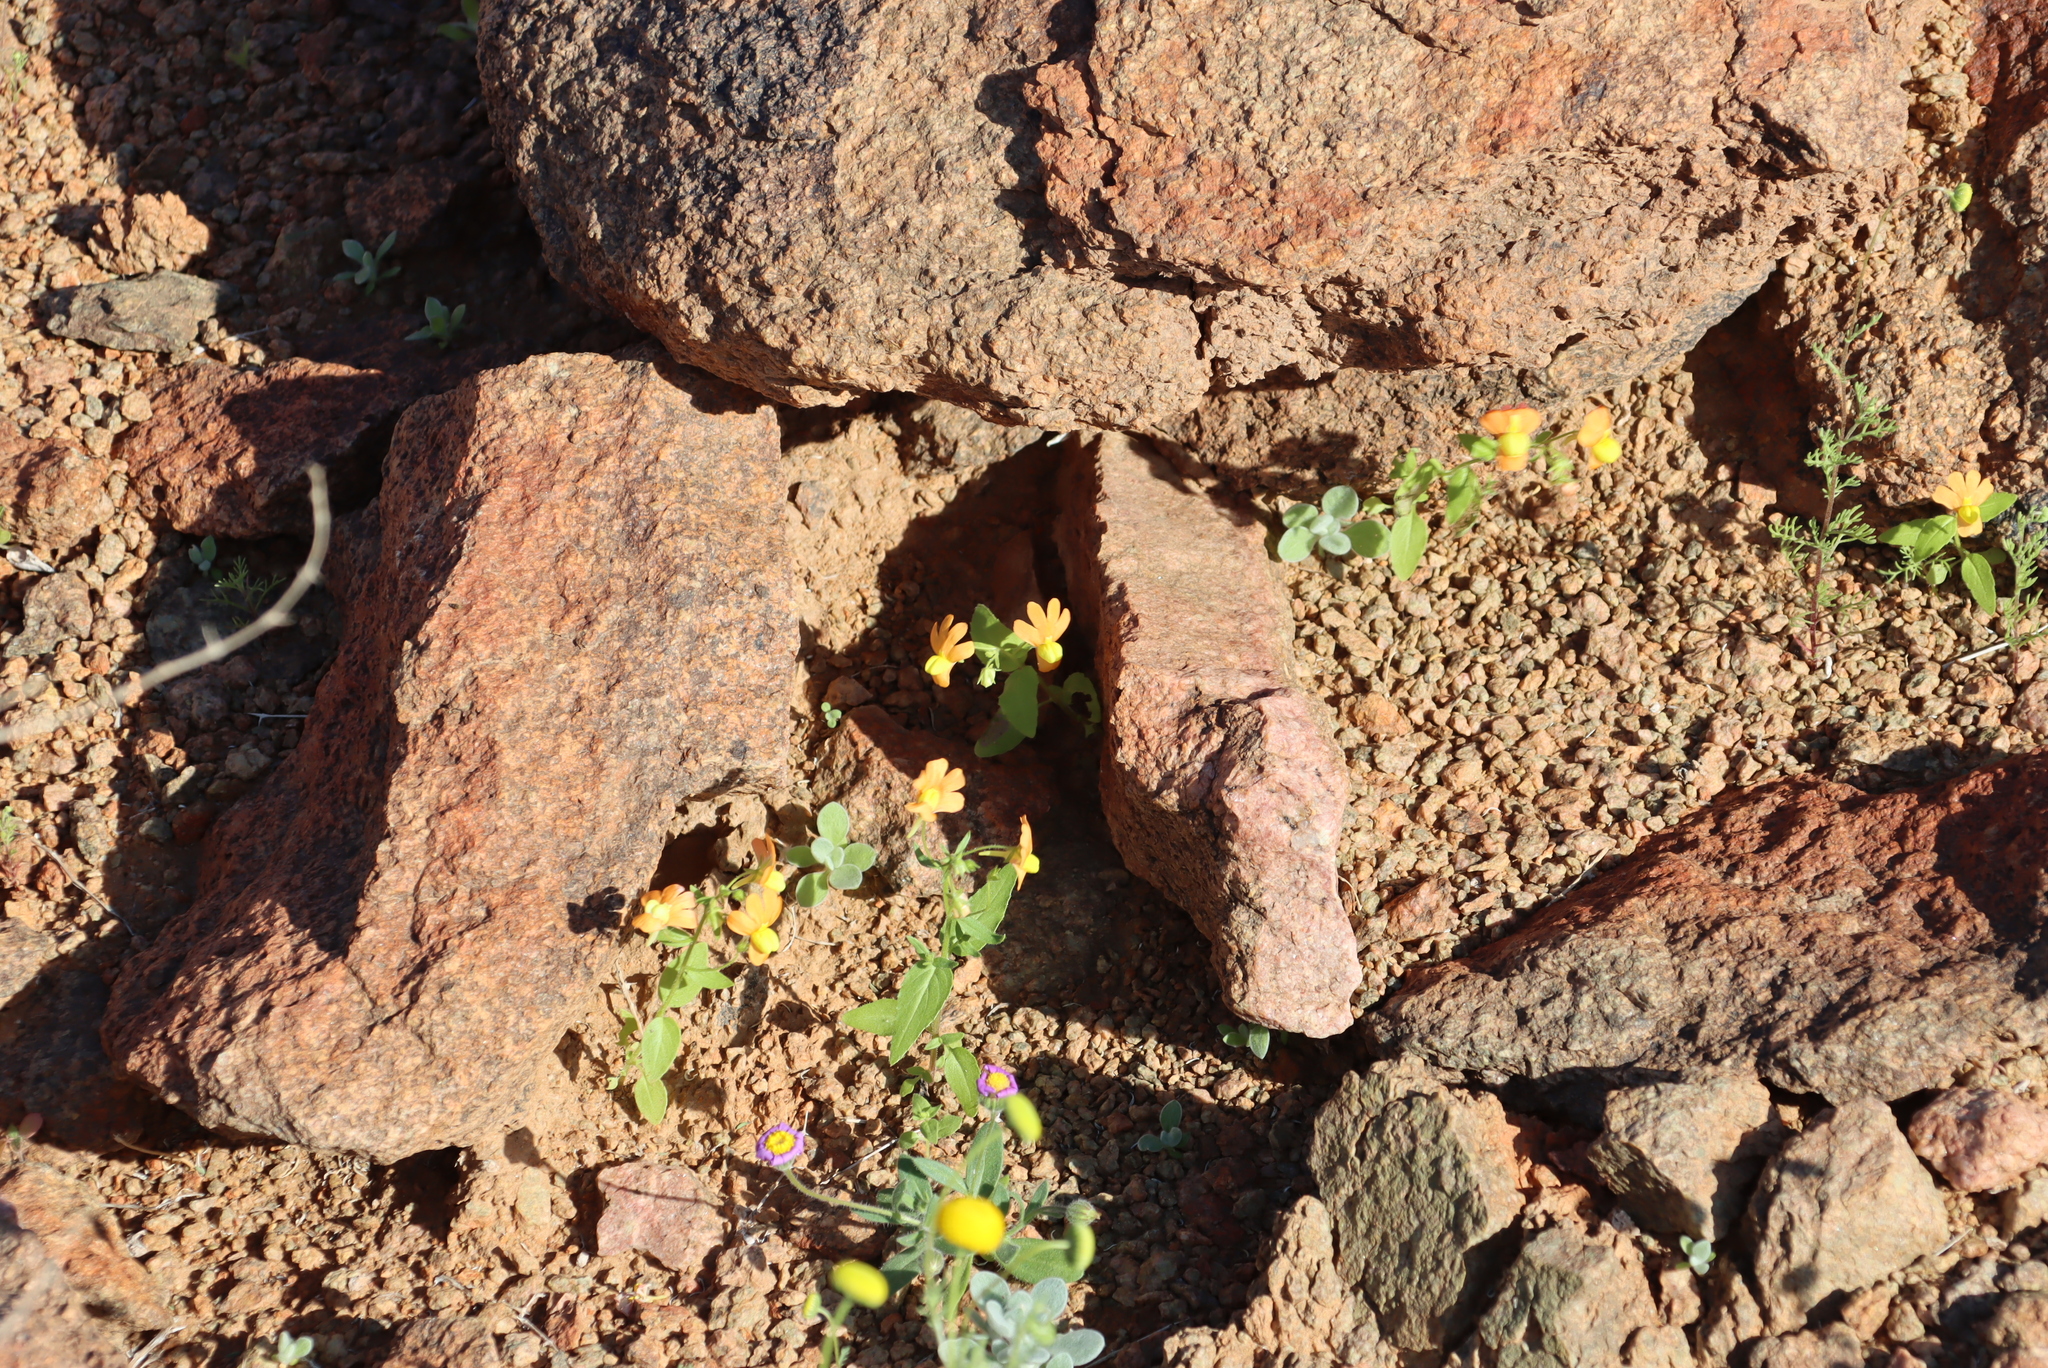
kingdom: Plantae
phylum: Tracheophyta
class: Magnoliopsida
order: Lamiales
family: Scrophulariaceae
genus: Nemesia
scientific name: Nemesia williamsonii
